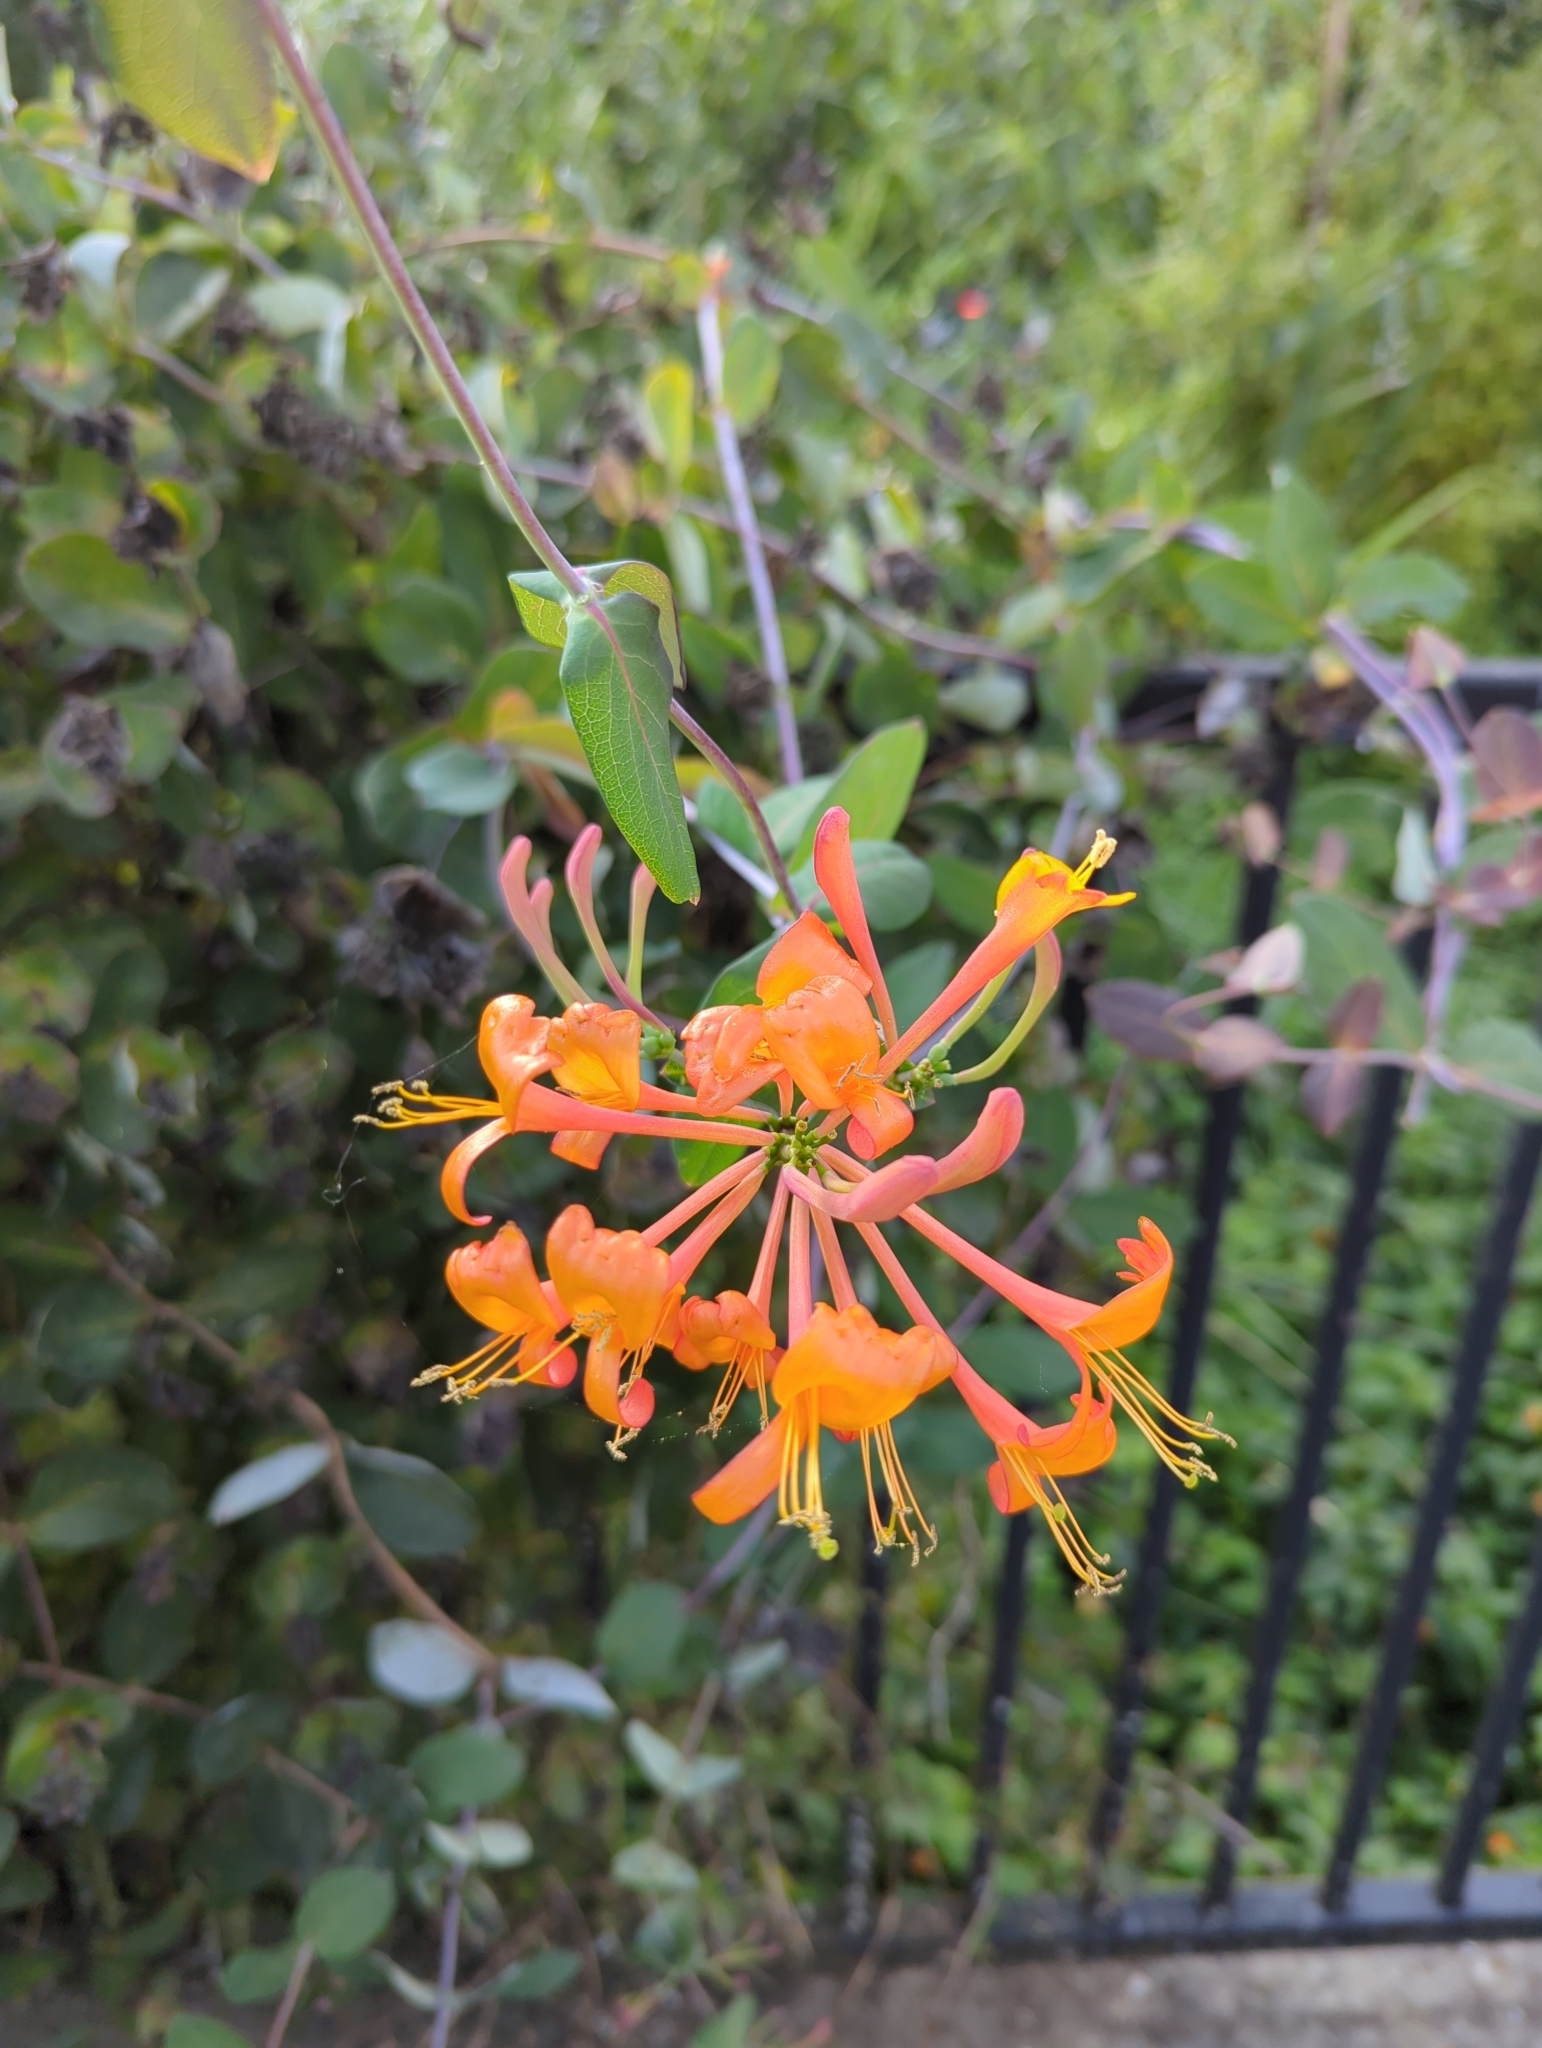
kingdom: Plantae
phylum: Tracheophyta
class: Magnoliopsida
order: Dipsacales
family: Caprifoliaceae
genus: Lonicera
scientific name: Lonicera ciliosa
